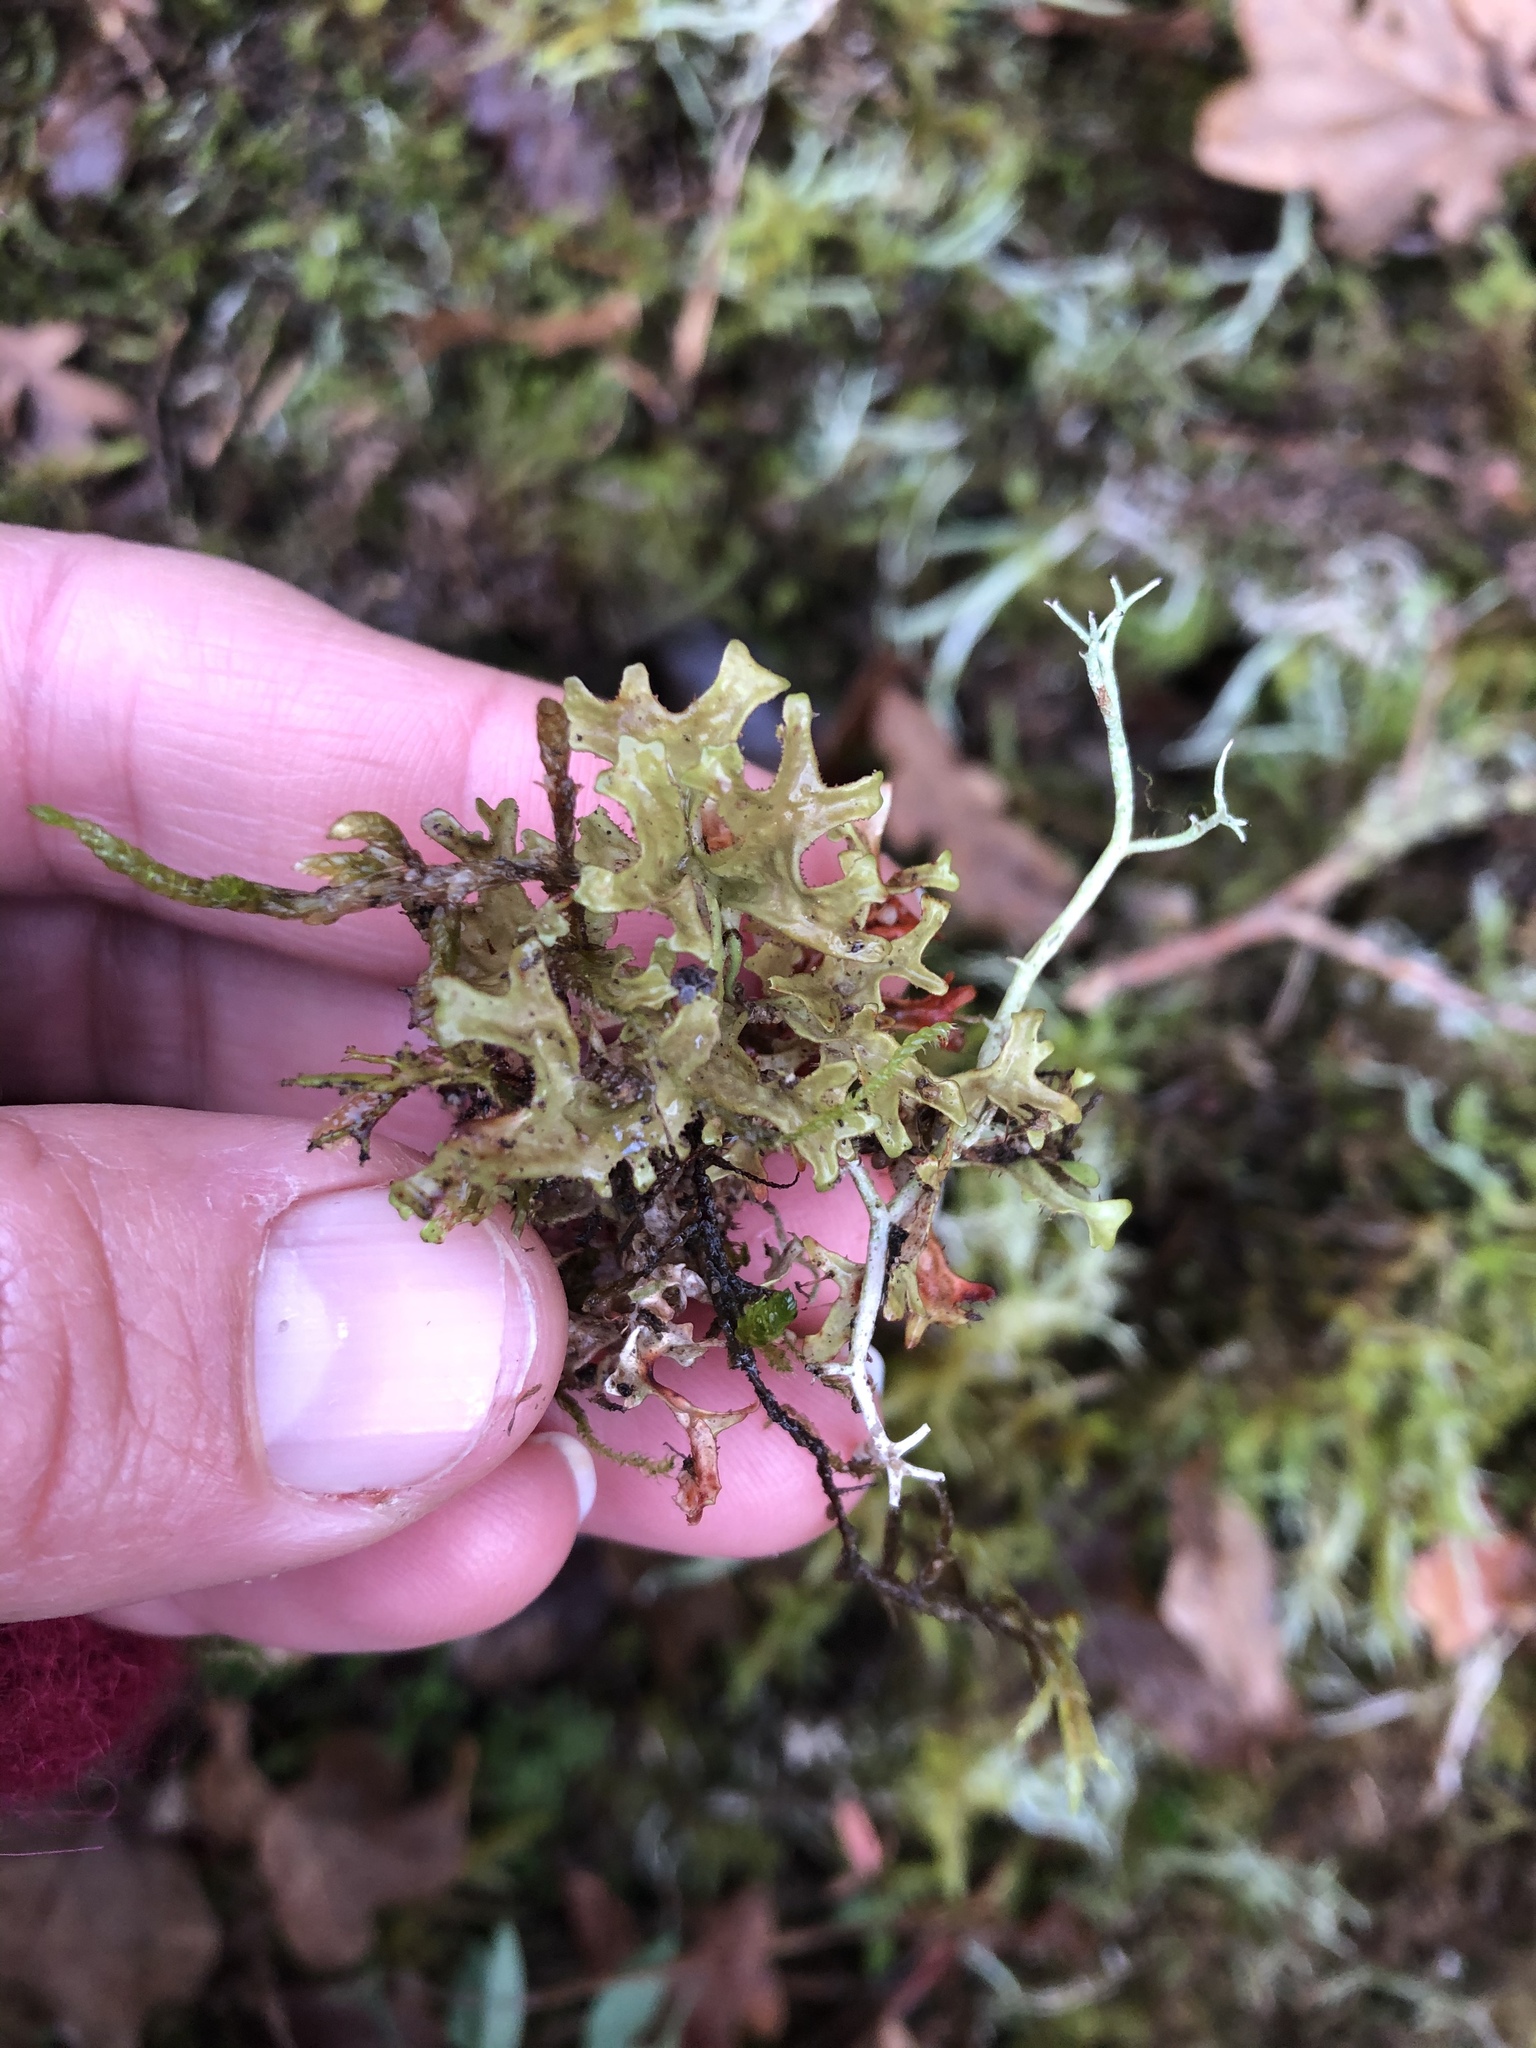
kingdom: Fungi
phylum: Ascomycota
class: Lecanoromycetes
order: Lecanorales
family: Parmeliaceae
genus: Cetraria
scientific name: Cetraria islandica
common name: Iceland lichen
